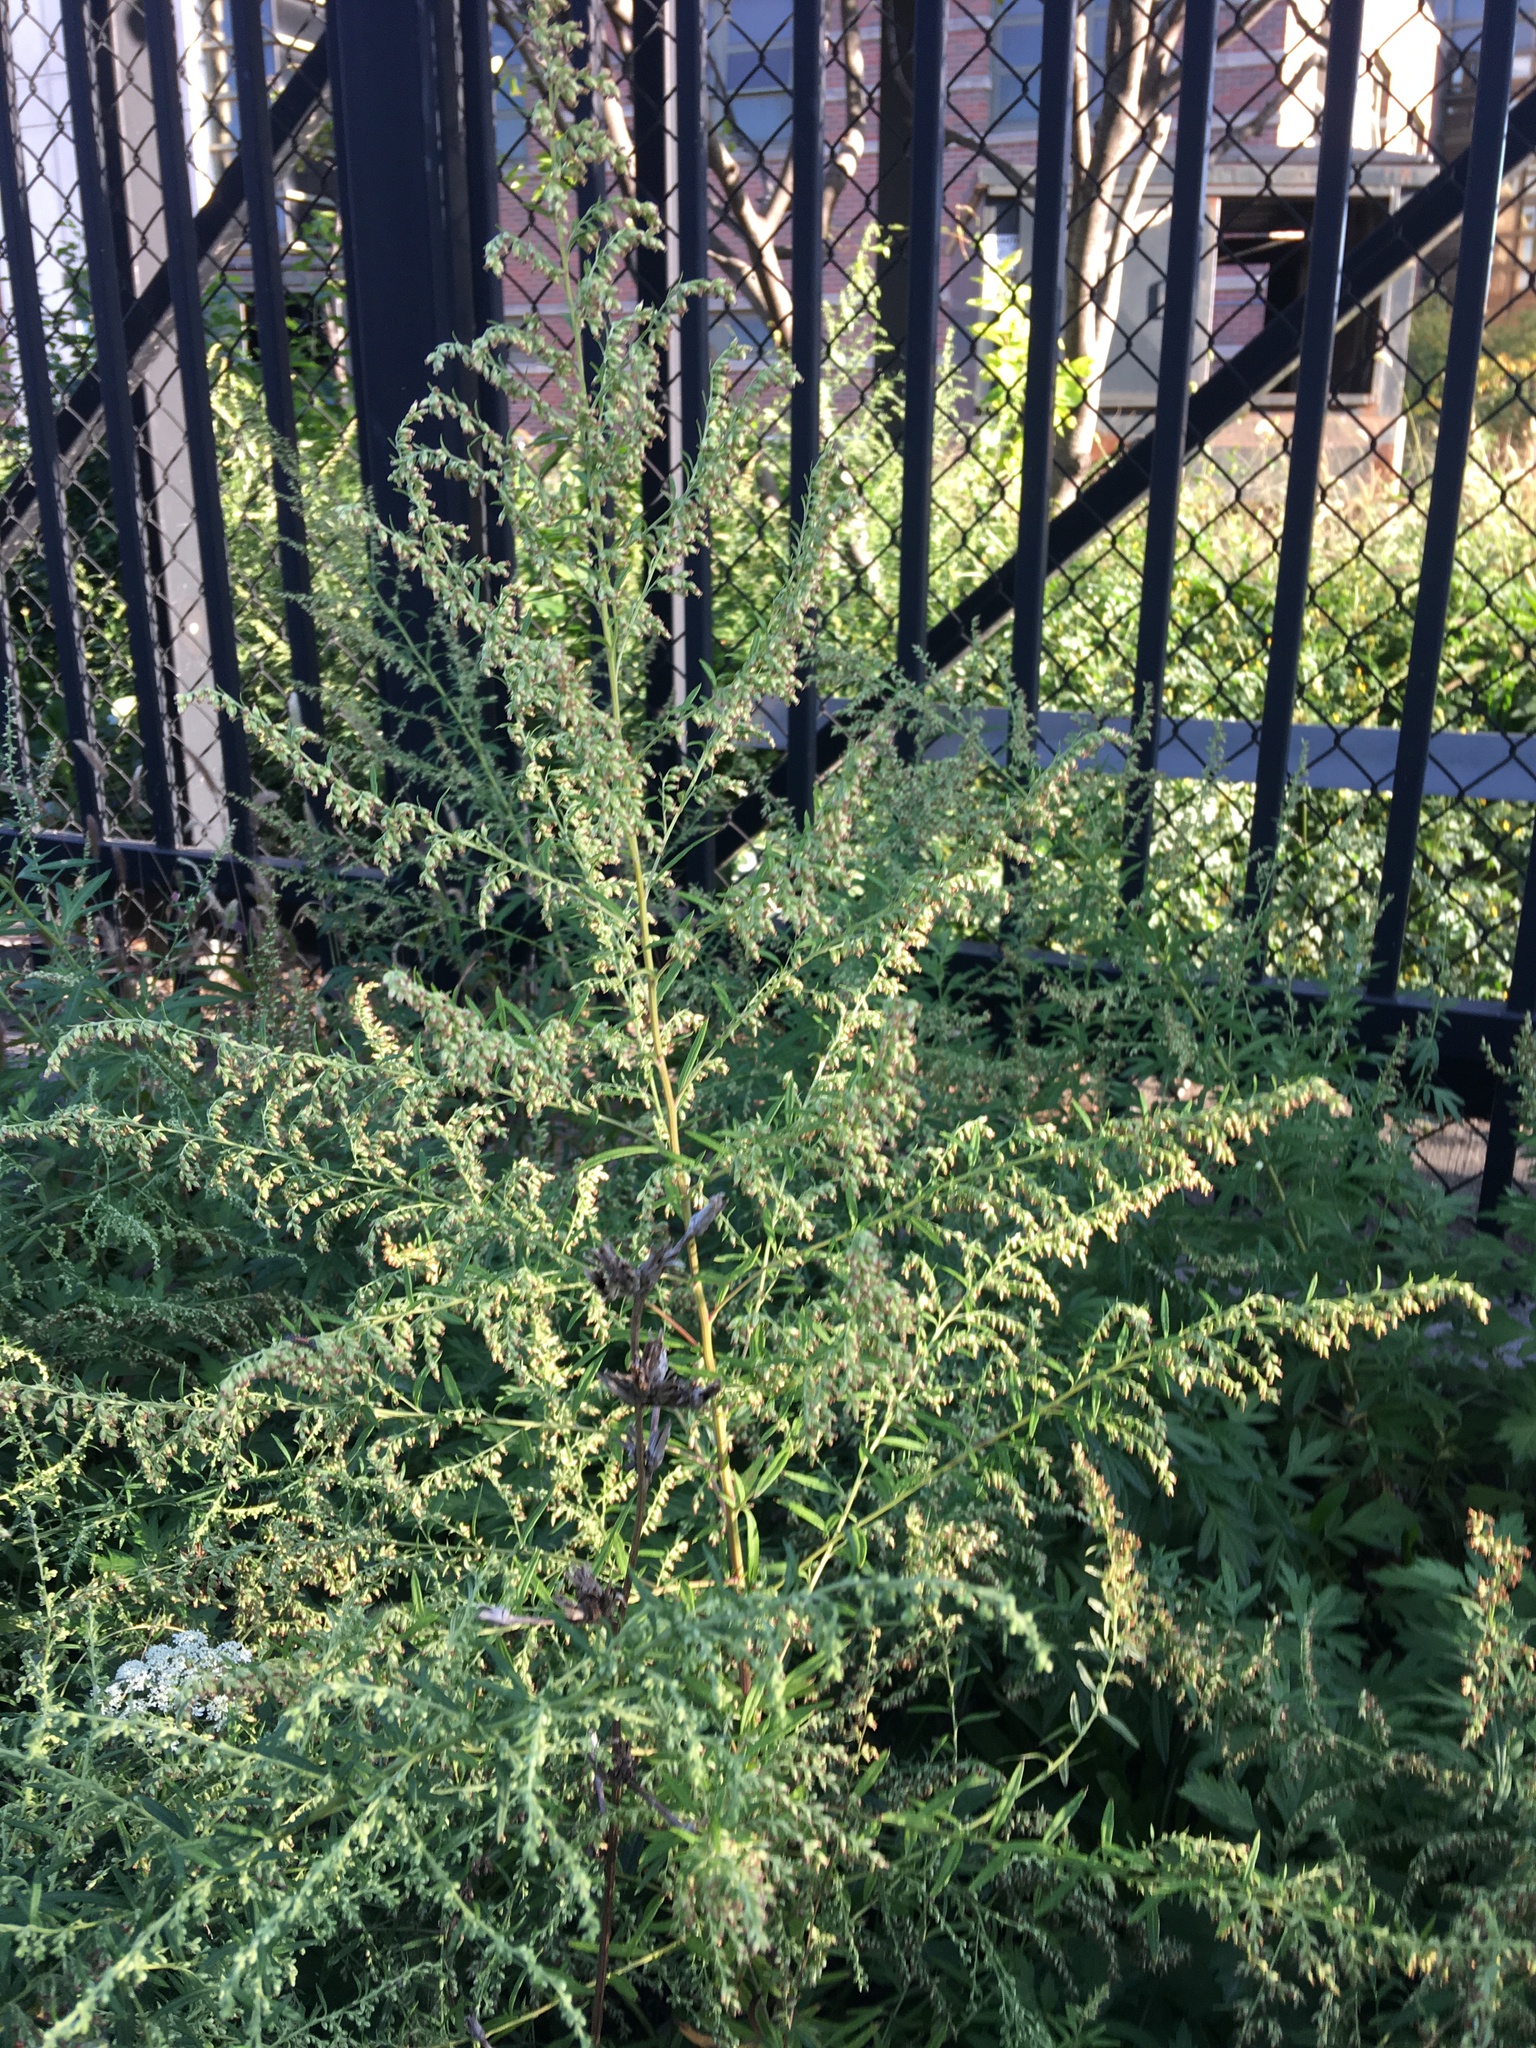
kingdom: Plantae
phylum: Tracheophyta
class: Magnoliopsida
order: Asterales
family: Asteraceae
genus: Artemisia
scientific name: Artemisia vulgaris
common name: Mugwort
